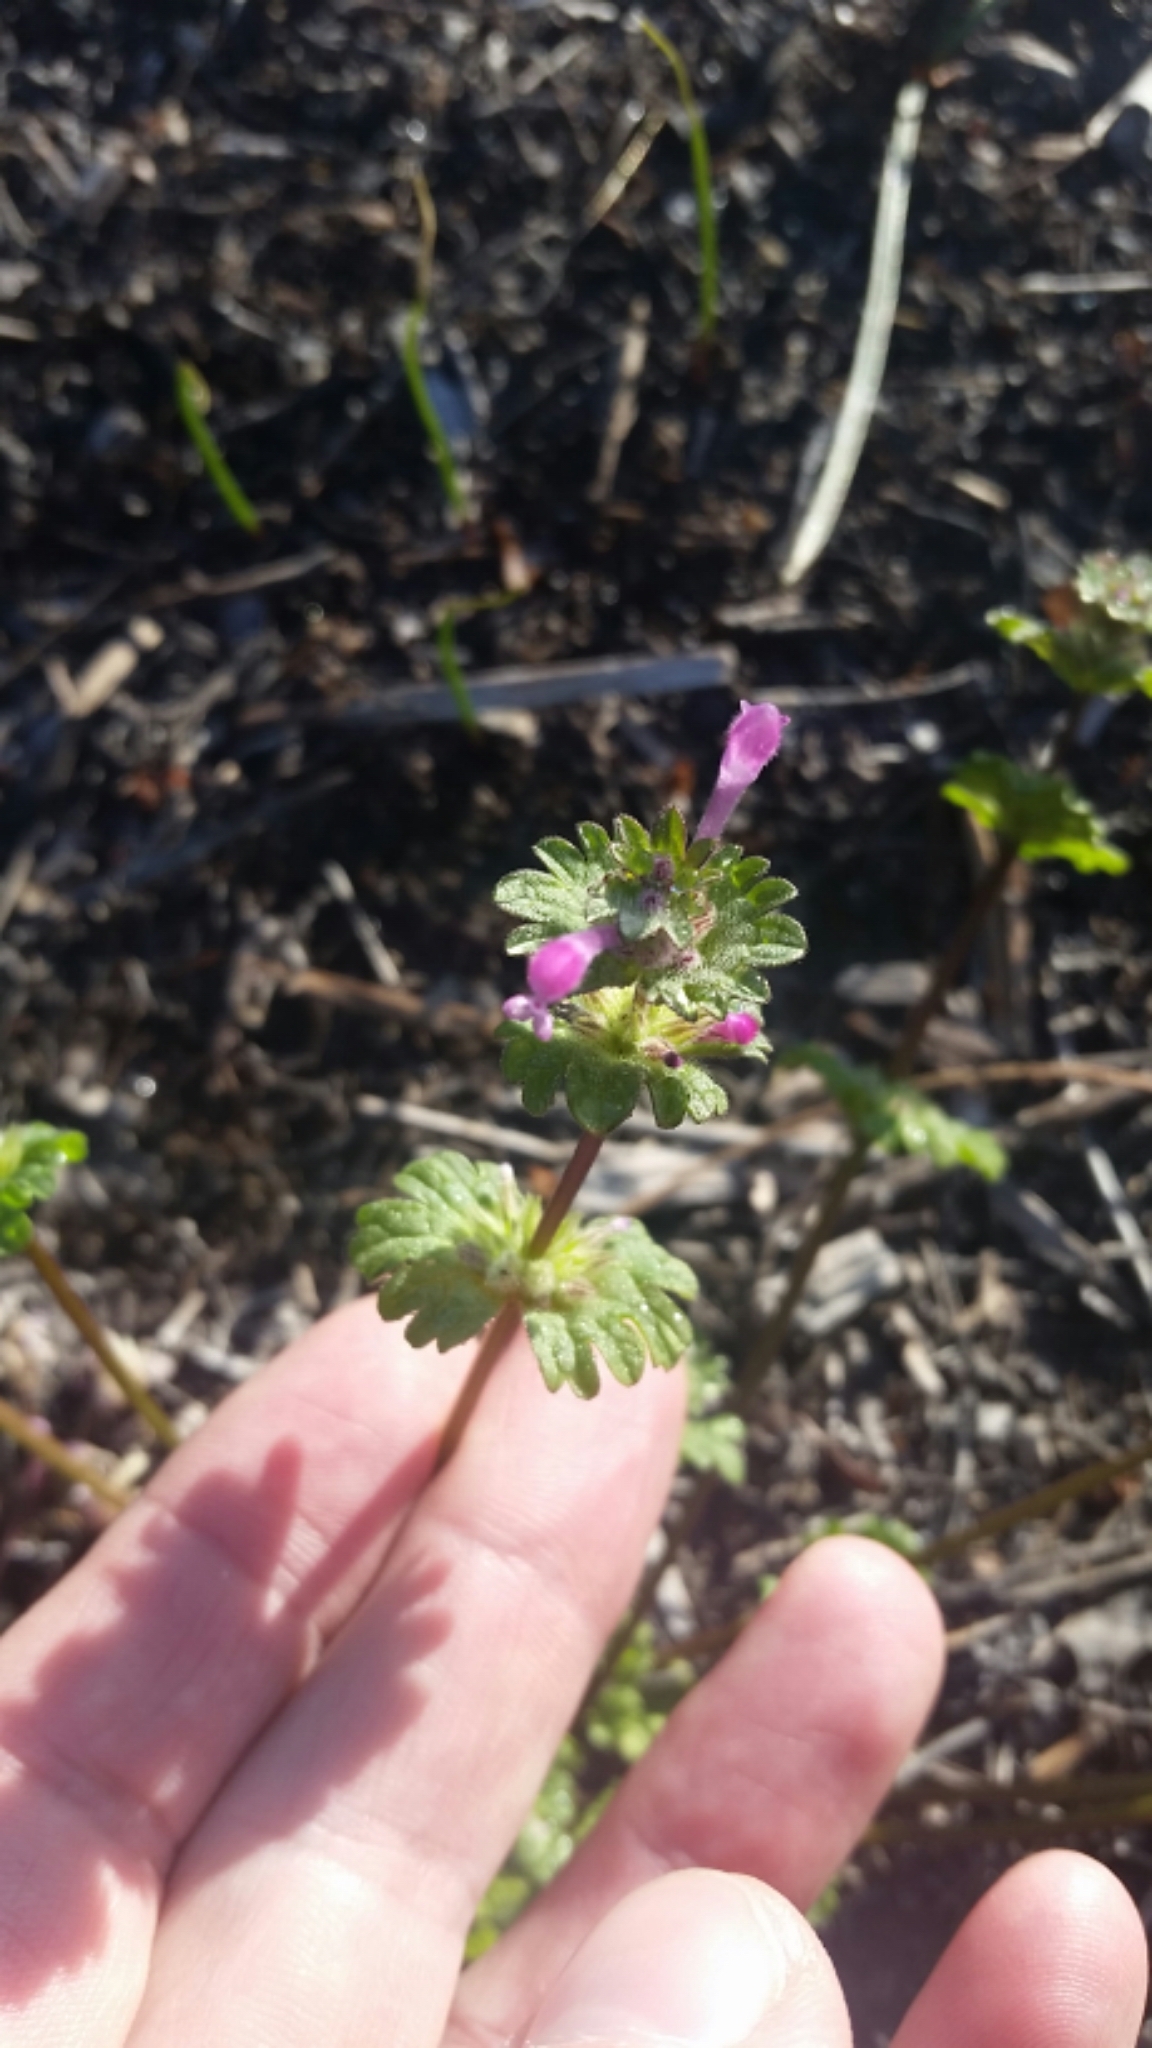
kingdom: Plantae
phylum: Tracheophyta
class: Magnoliopsida
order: Lamiales
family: Lamiaceae
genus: Lamium
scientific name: Lamium amplexicaule
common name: Henbit dead-nettle
